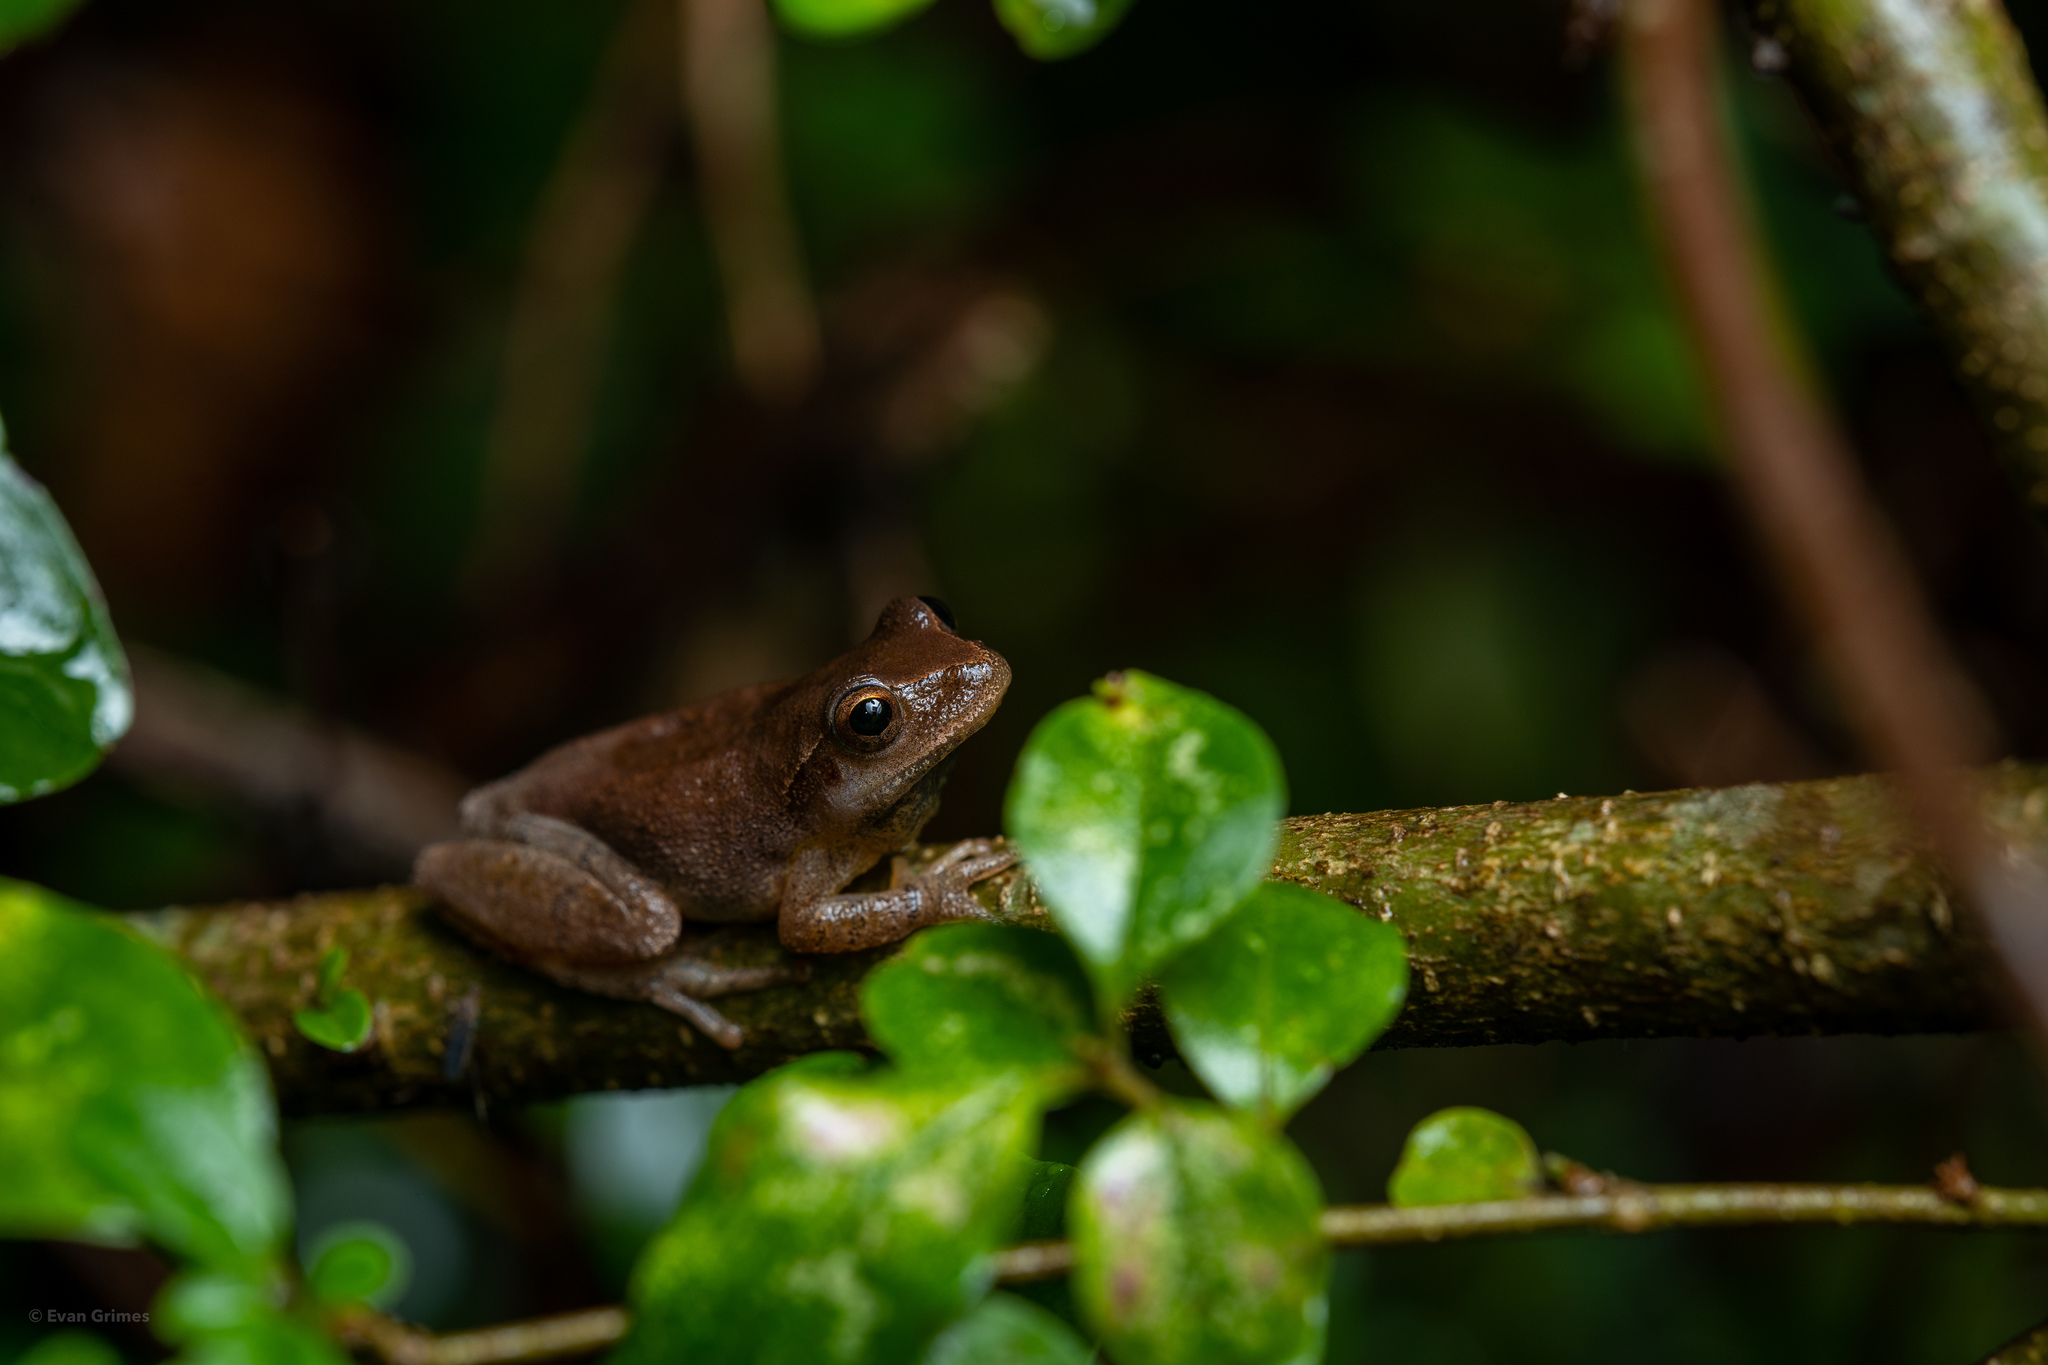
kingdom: Animalia
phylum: Chordata
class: Amphibia
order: Anura
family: Hylidae
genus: Pseudacris
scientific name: Pseudacris crucifer
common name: Spring peeper
